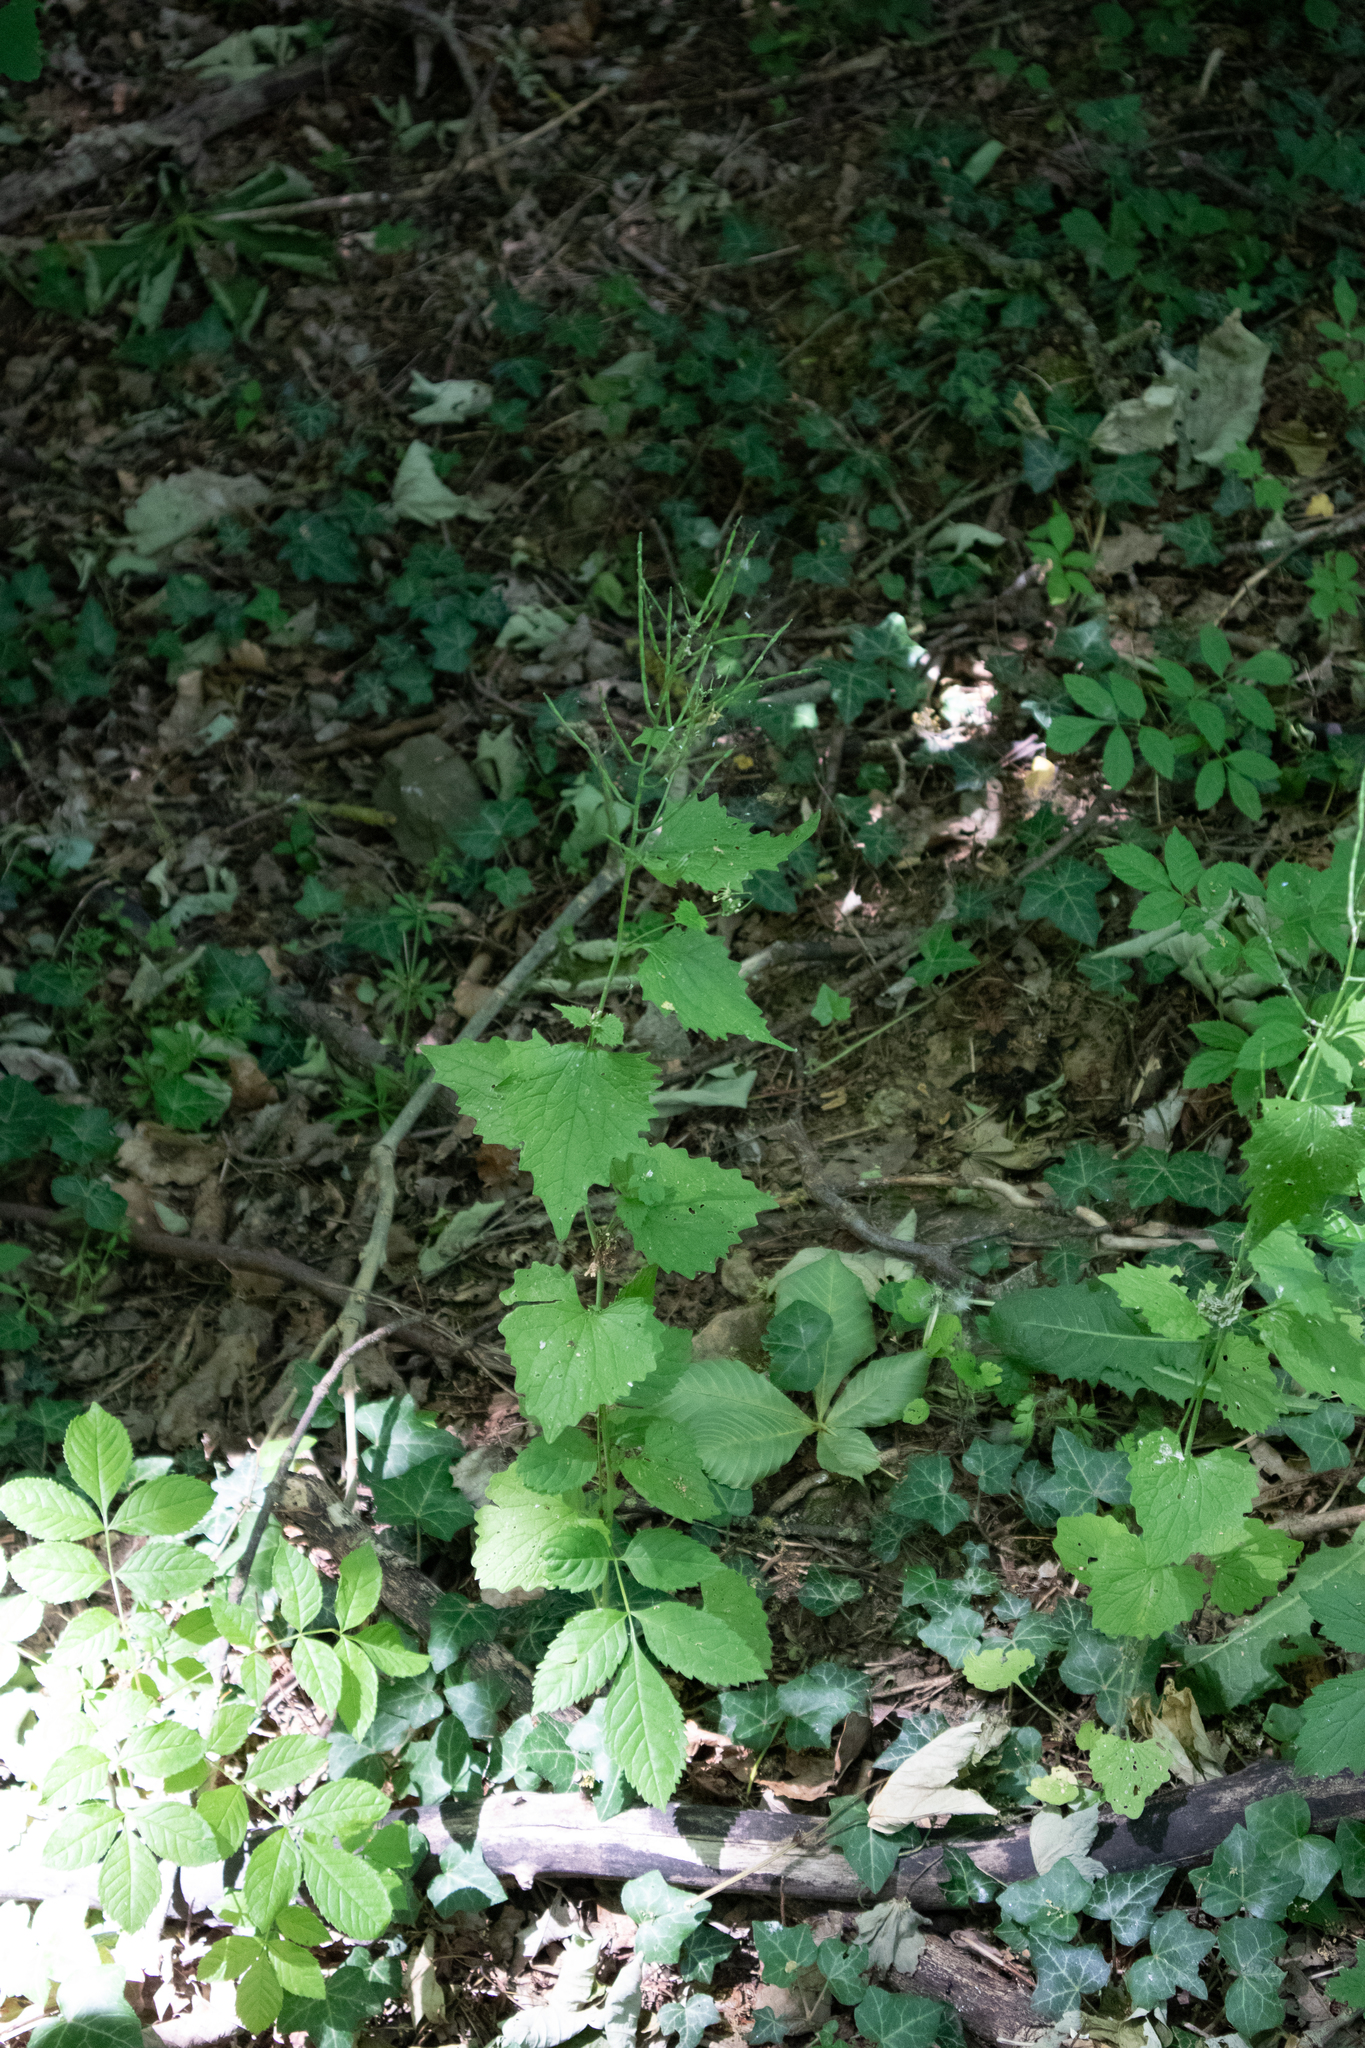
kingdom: Plantae
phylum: Tracheophyta
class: Magnoliopsida
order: Brassicales
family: Brassicaceae
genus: Alliaria
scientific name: Alliaria petiolata
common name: Garlic mustard
